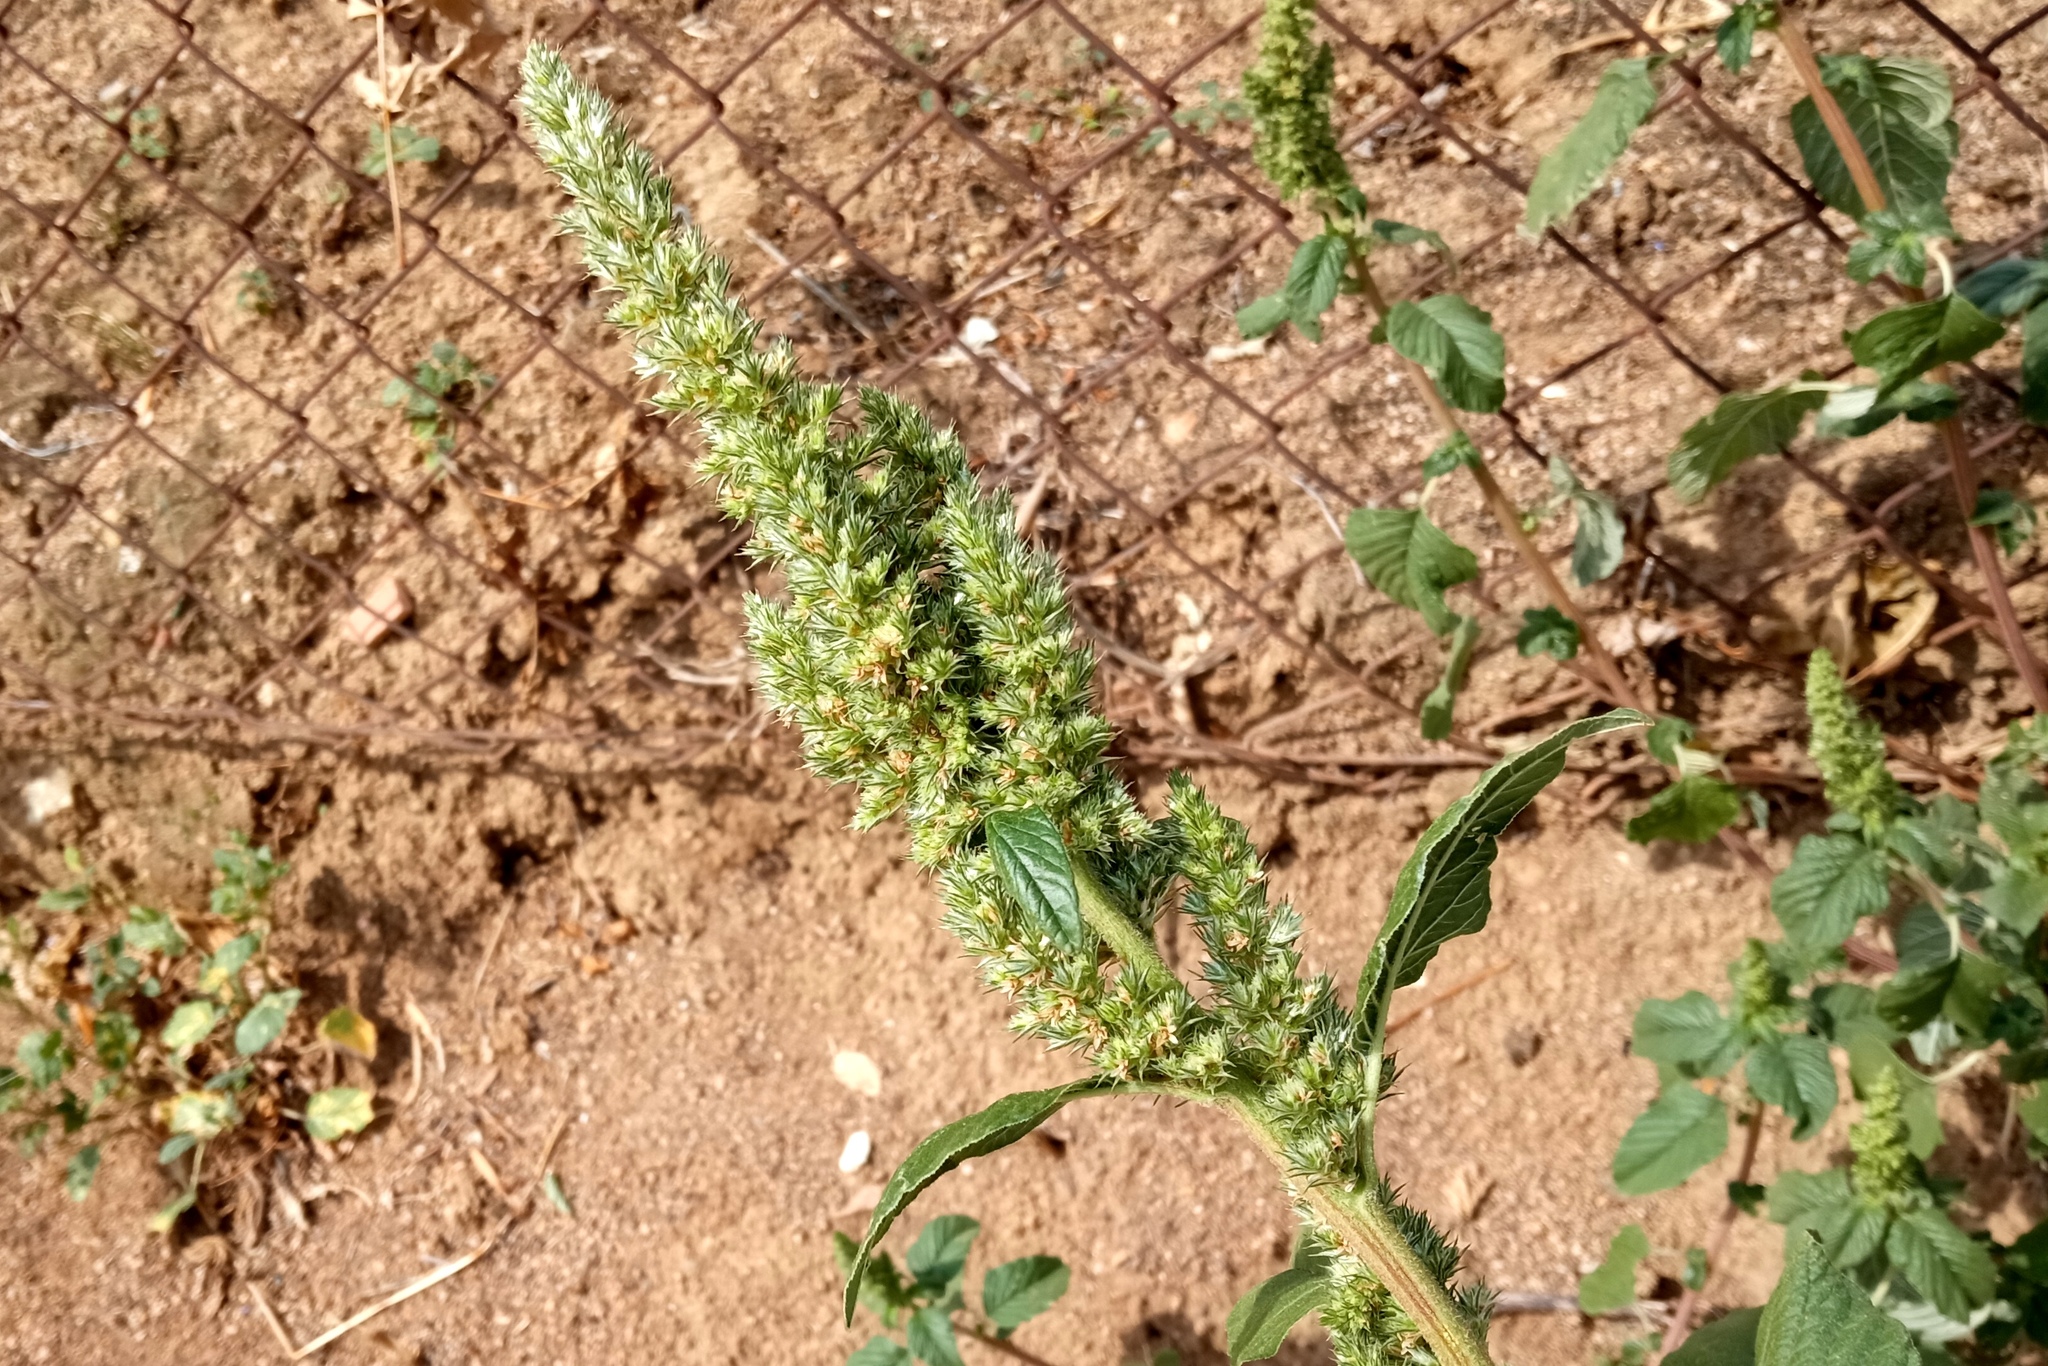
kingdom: Plantae
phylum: Tracheophyta
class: Magnoliopsida
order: Caryophyllales
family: Amaranthaceae
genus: Amaranthus
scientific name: Amaranthus retroflexus
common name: Redroot amaranth
